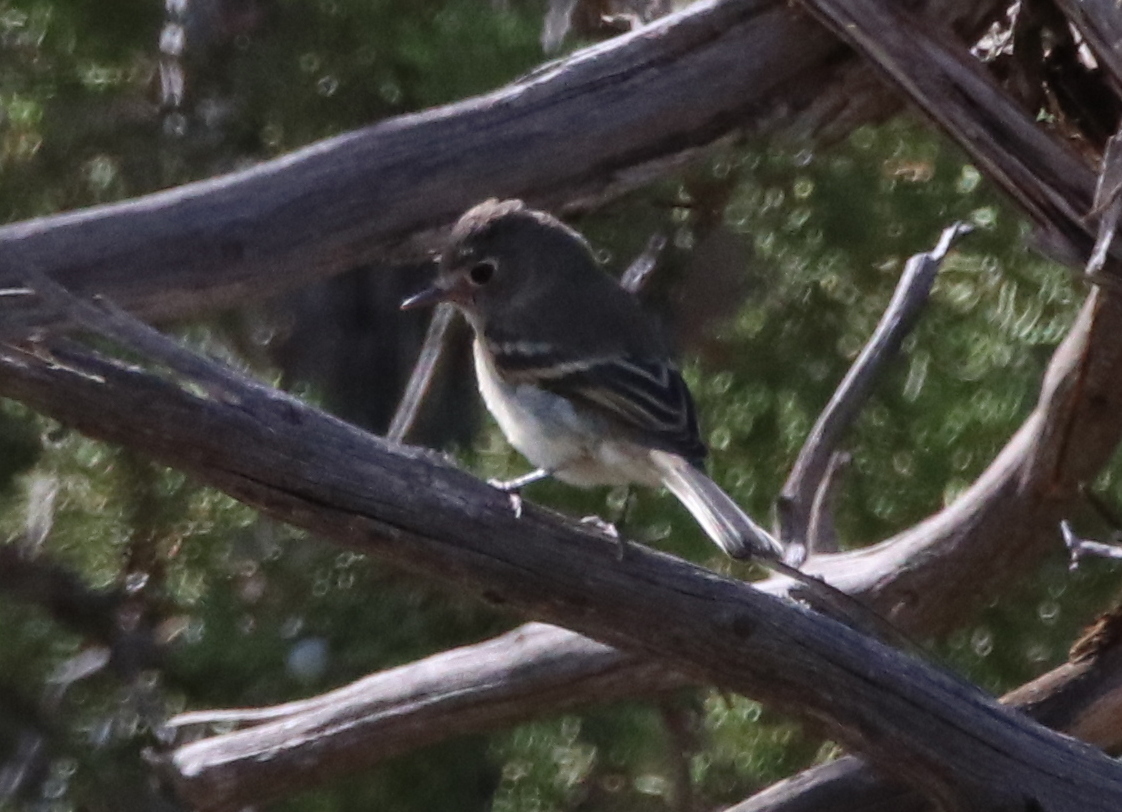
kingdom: Animalia
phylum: Chordata
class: Aves
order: Passeriformes
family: Tyrannidae
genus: Empidonax
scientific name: Empidonax hammondii
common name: Hammond's flycatcher
